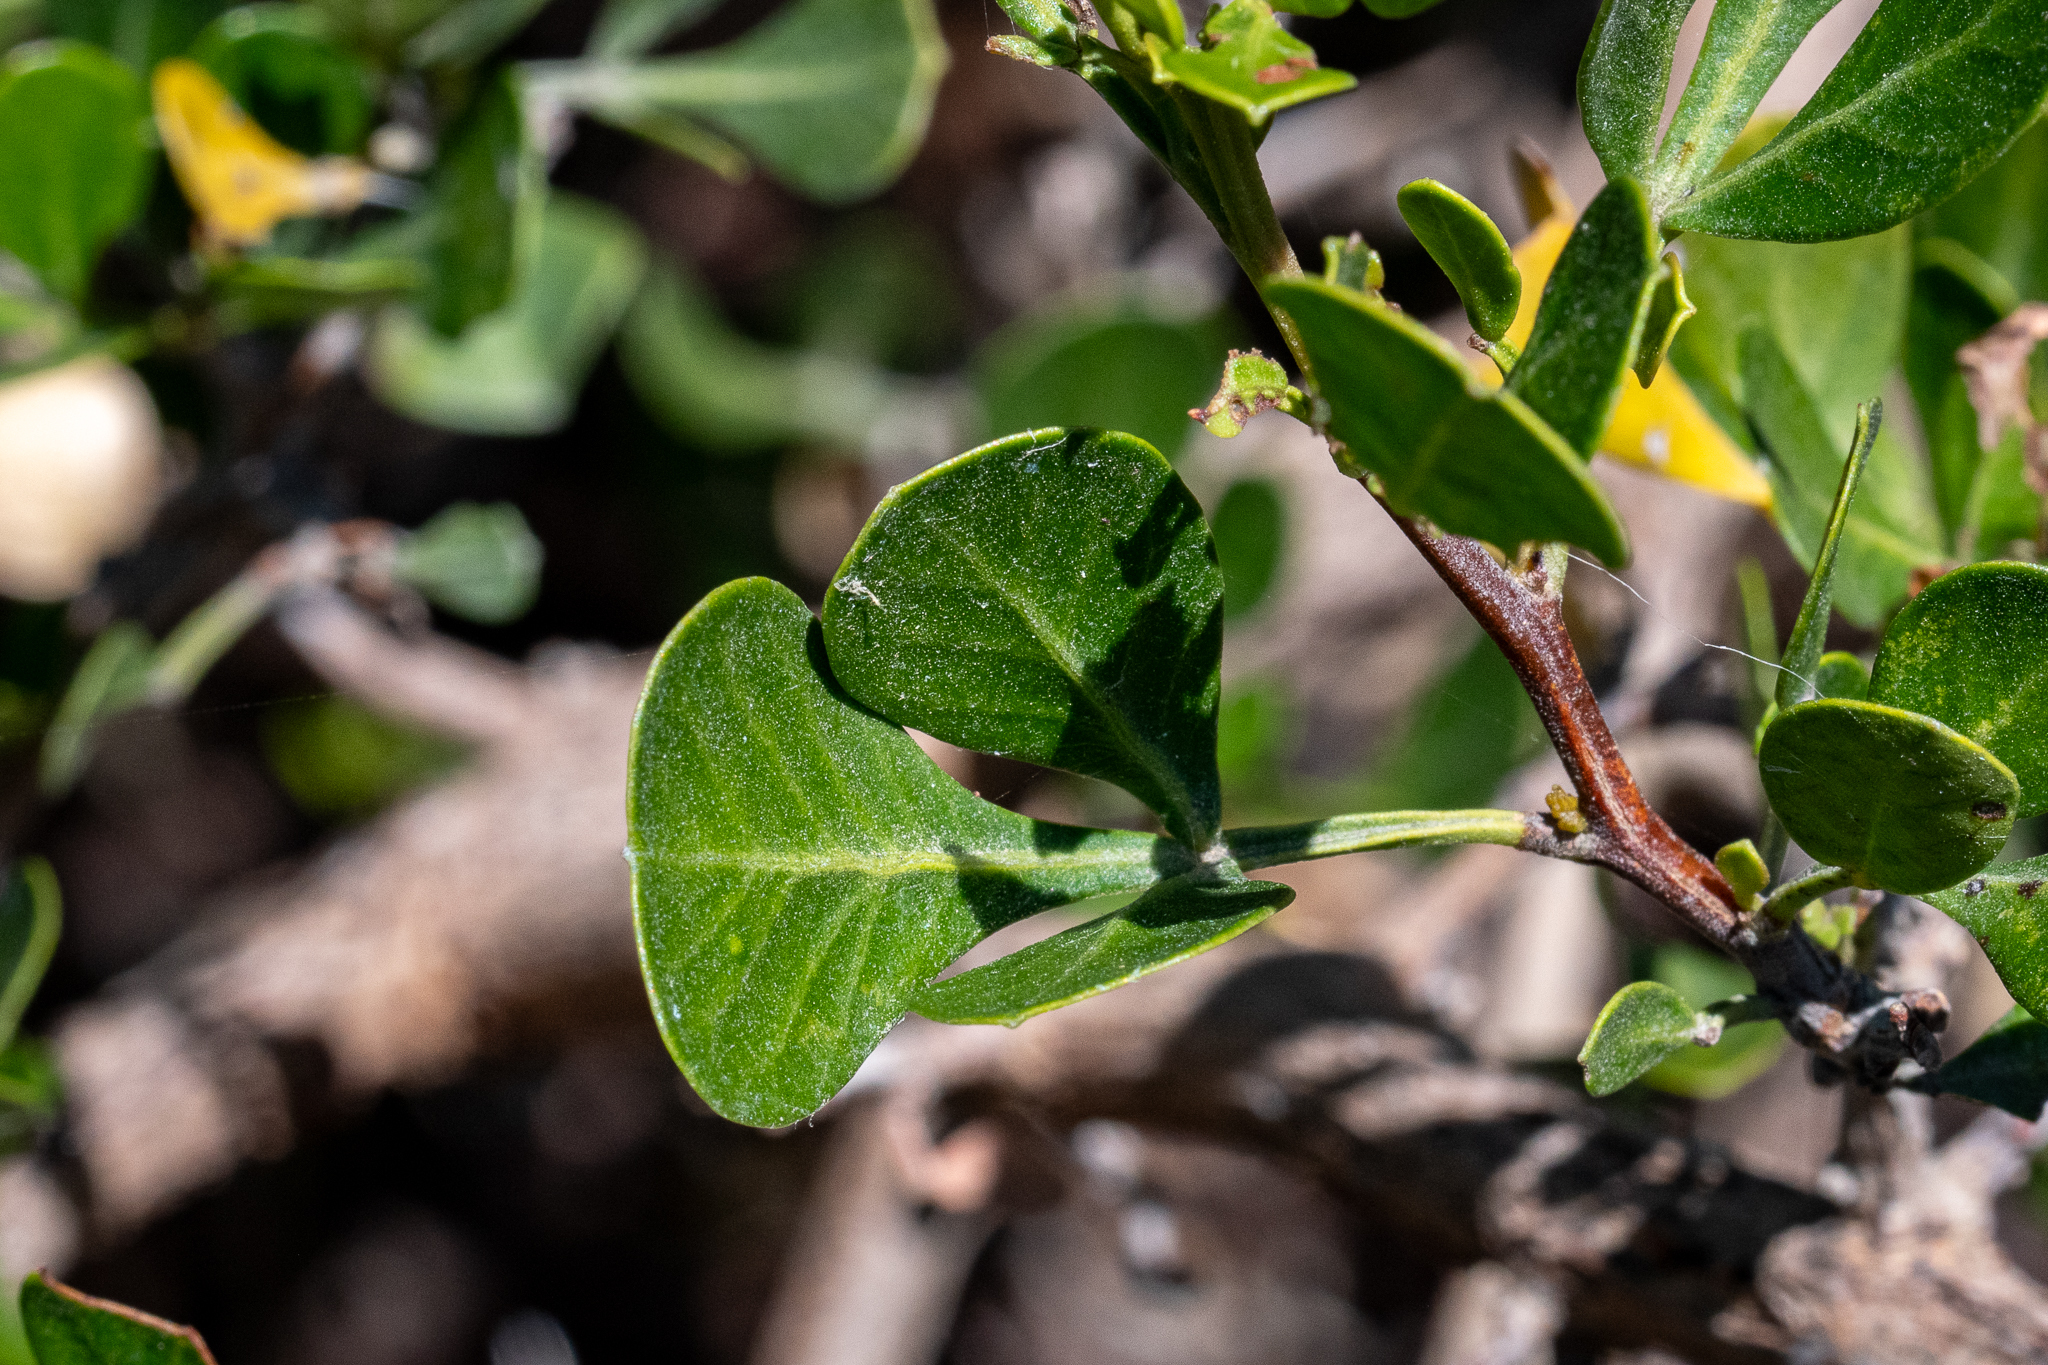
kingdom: Plantae
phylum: Tracheophyta
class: Magnoliopsida
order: Sapindales
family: Anacardiaceae
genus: Searsia
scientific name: Searsia glauca
